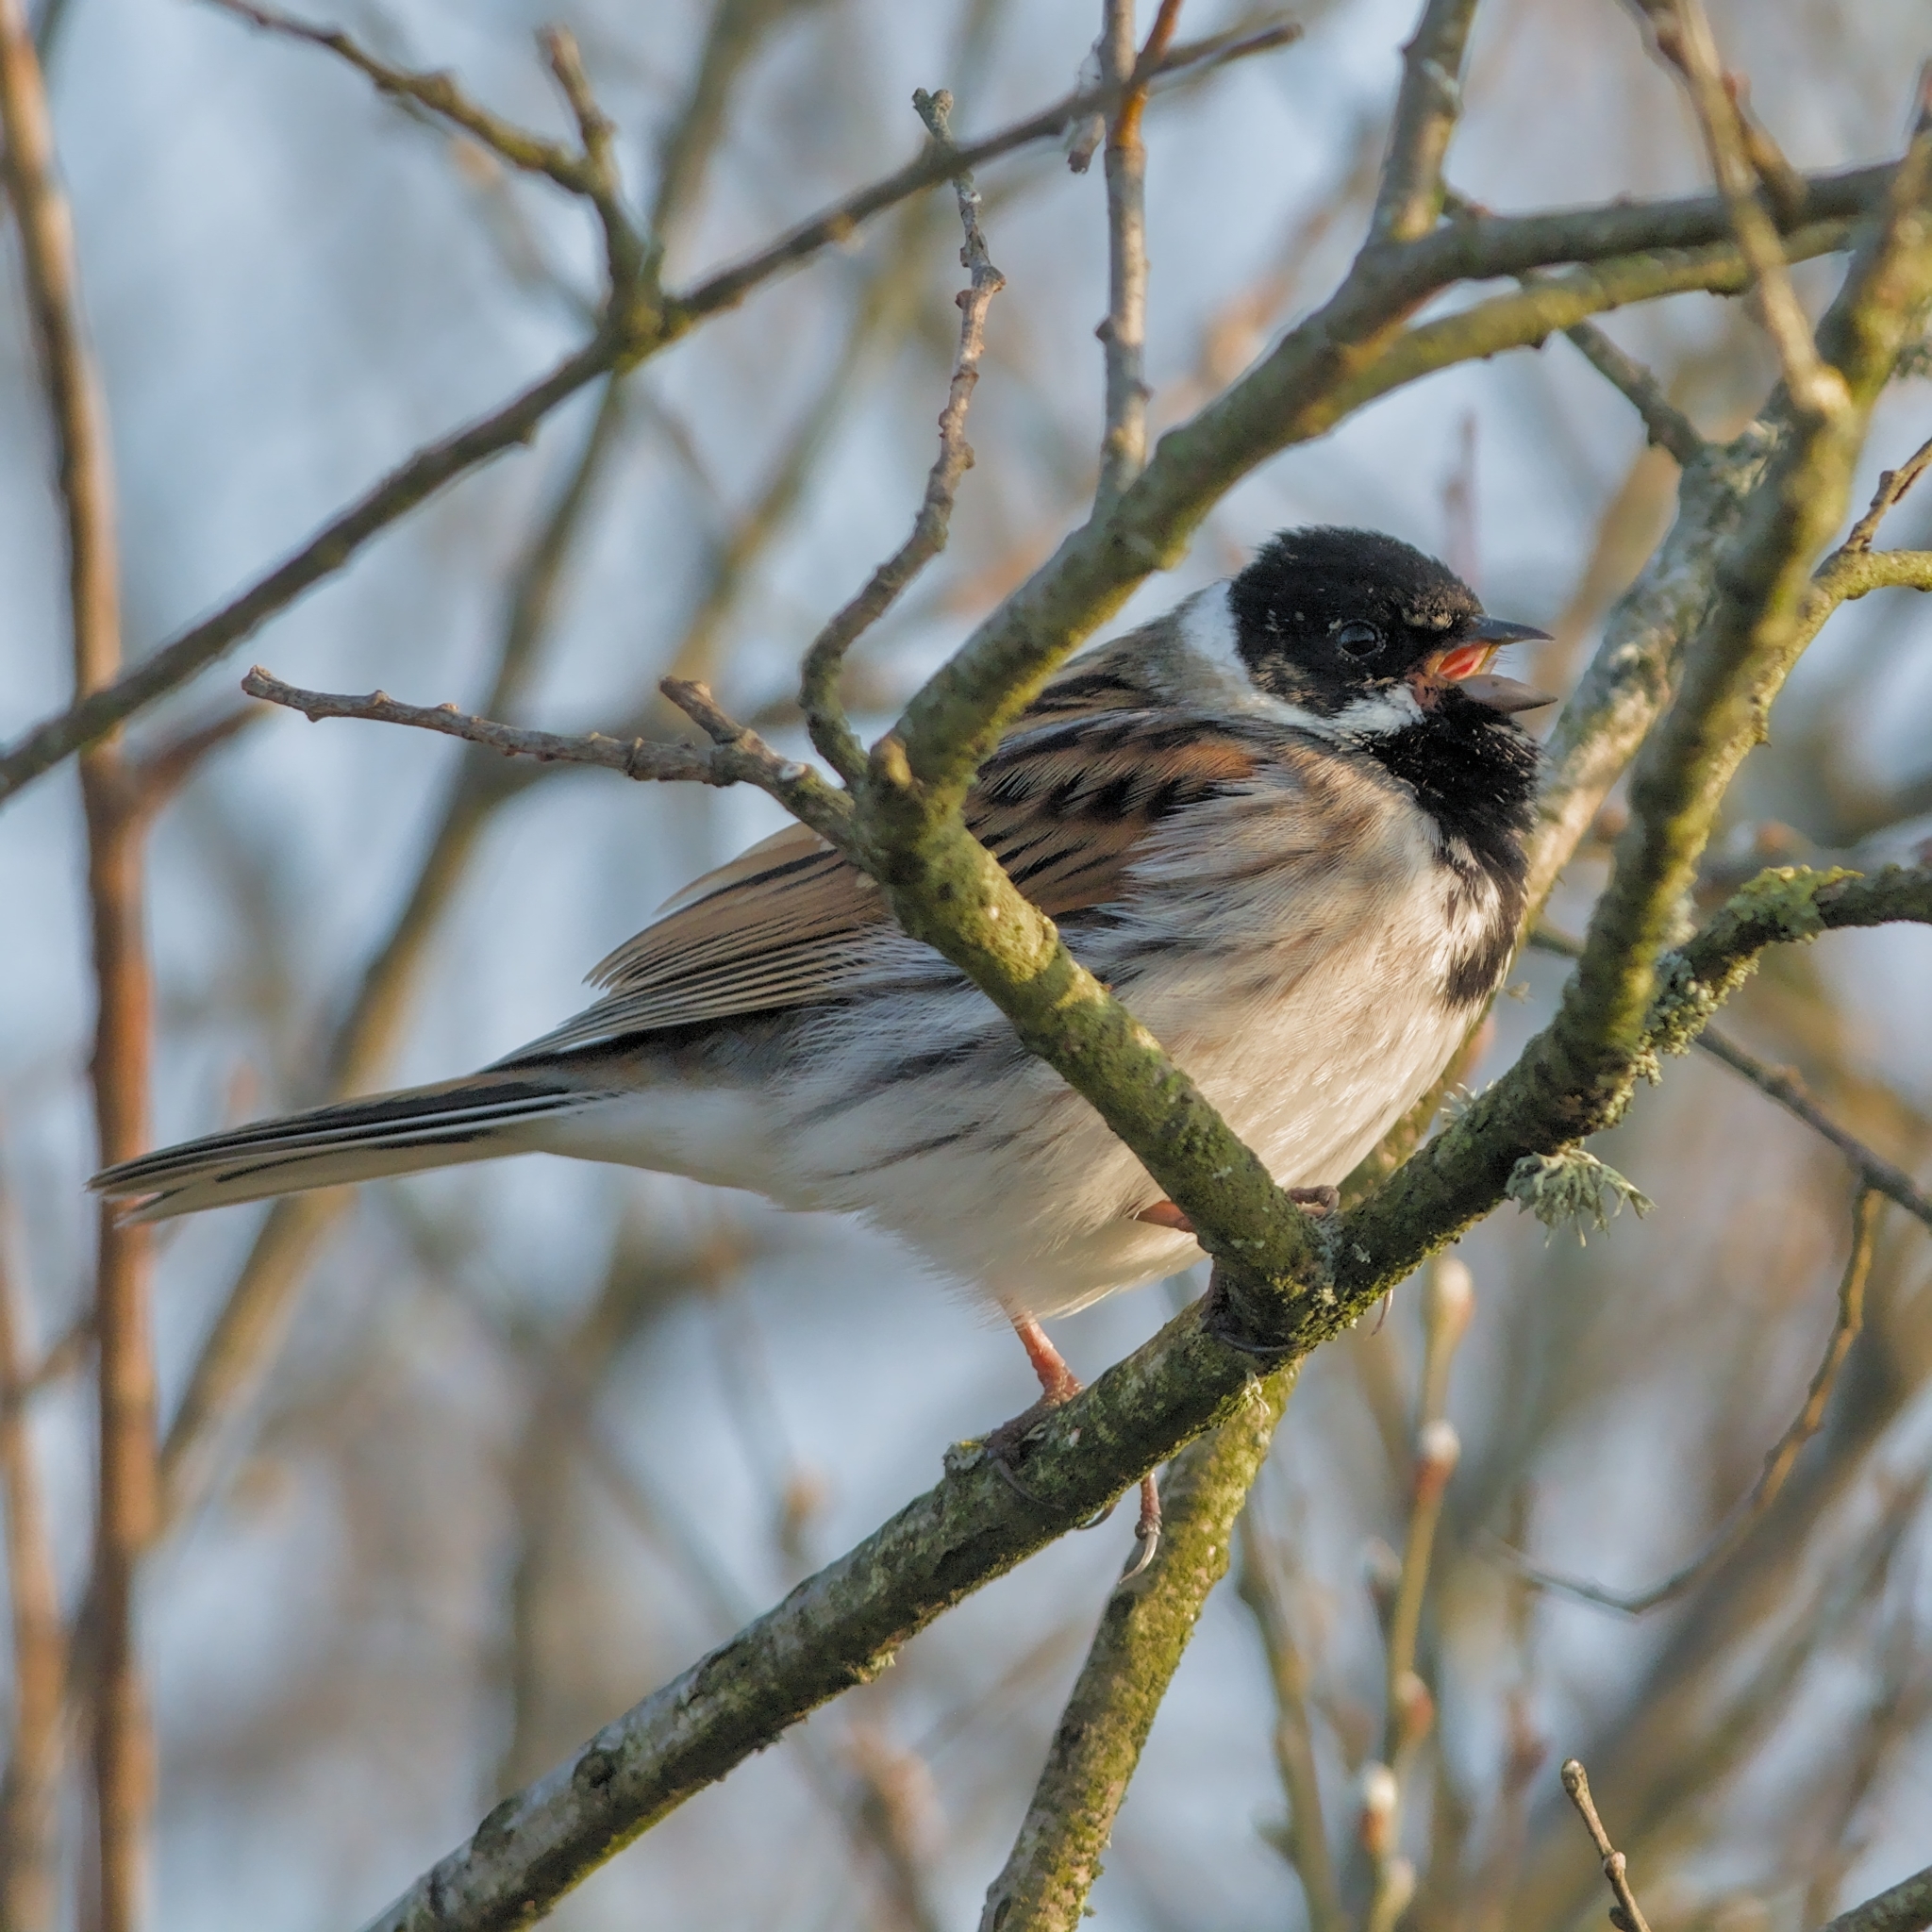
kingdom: Animalia
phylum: Chordata
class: Aves
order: Passeriformes
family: Emberizidae
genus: Emberiza
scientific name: Emberiza schoeniclus
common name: Reed bunting
